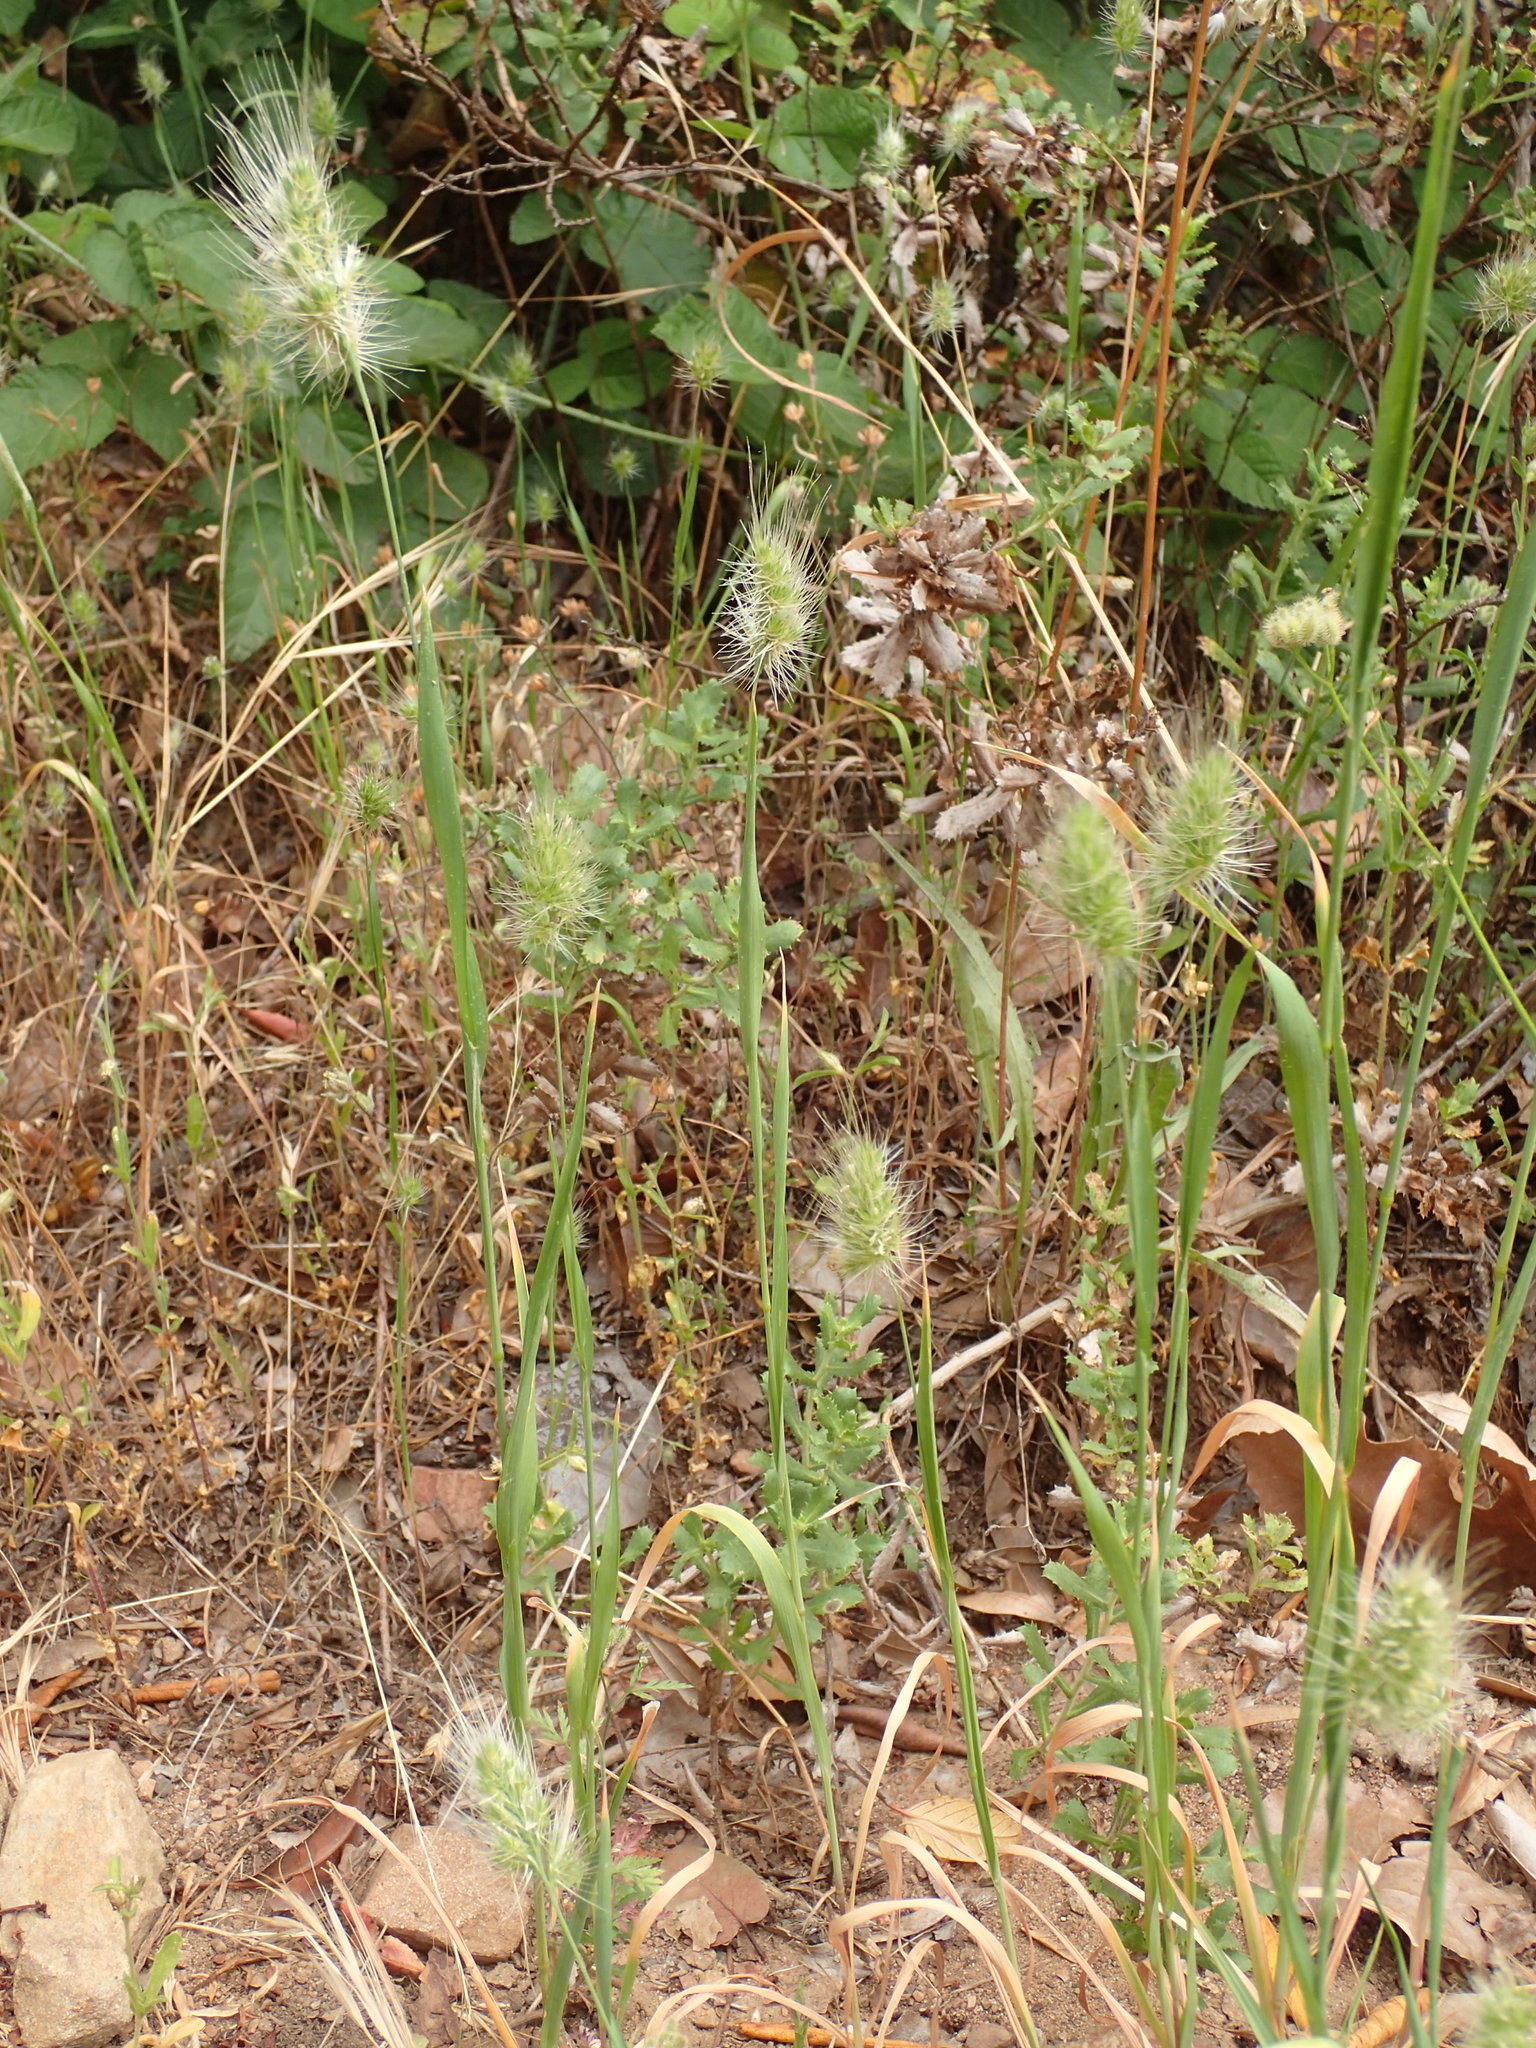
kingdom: Plantae
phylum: Tracheophyta
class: Liliopsida
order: Poales
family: Poaceae
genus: Cynosurus
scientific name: Cynosurus echinatus
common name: Rough dog's-tail
